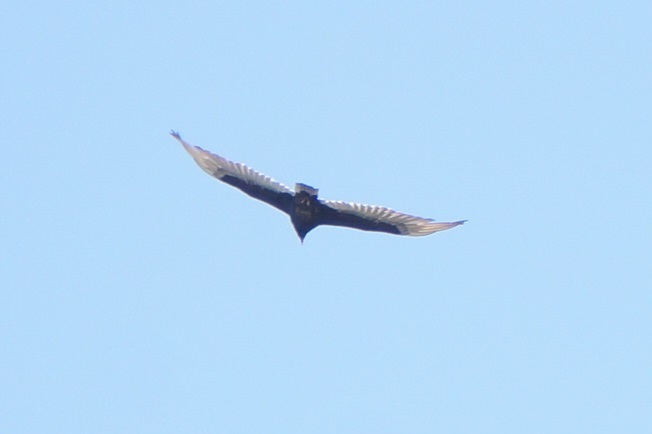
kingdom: Animalia
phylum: Chordata
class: Aves
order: Accipitriformes
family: Cathartidae
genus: Cathartes
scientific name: Cathartes aura
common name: Turkey vulture
